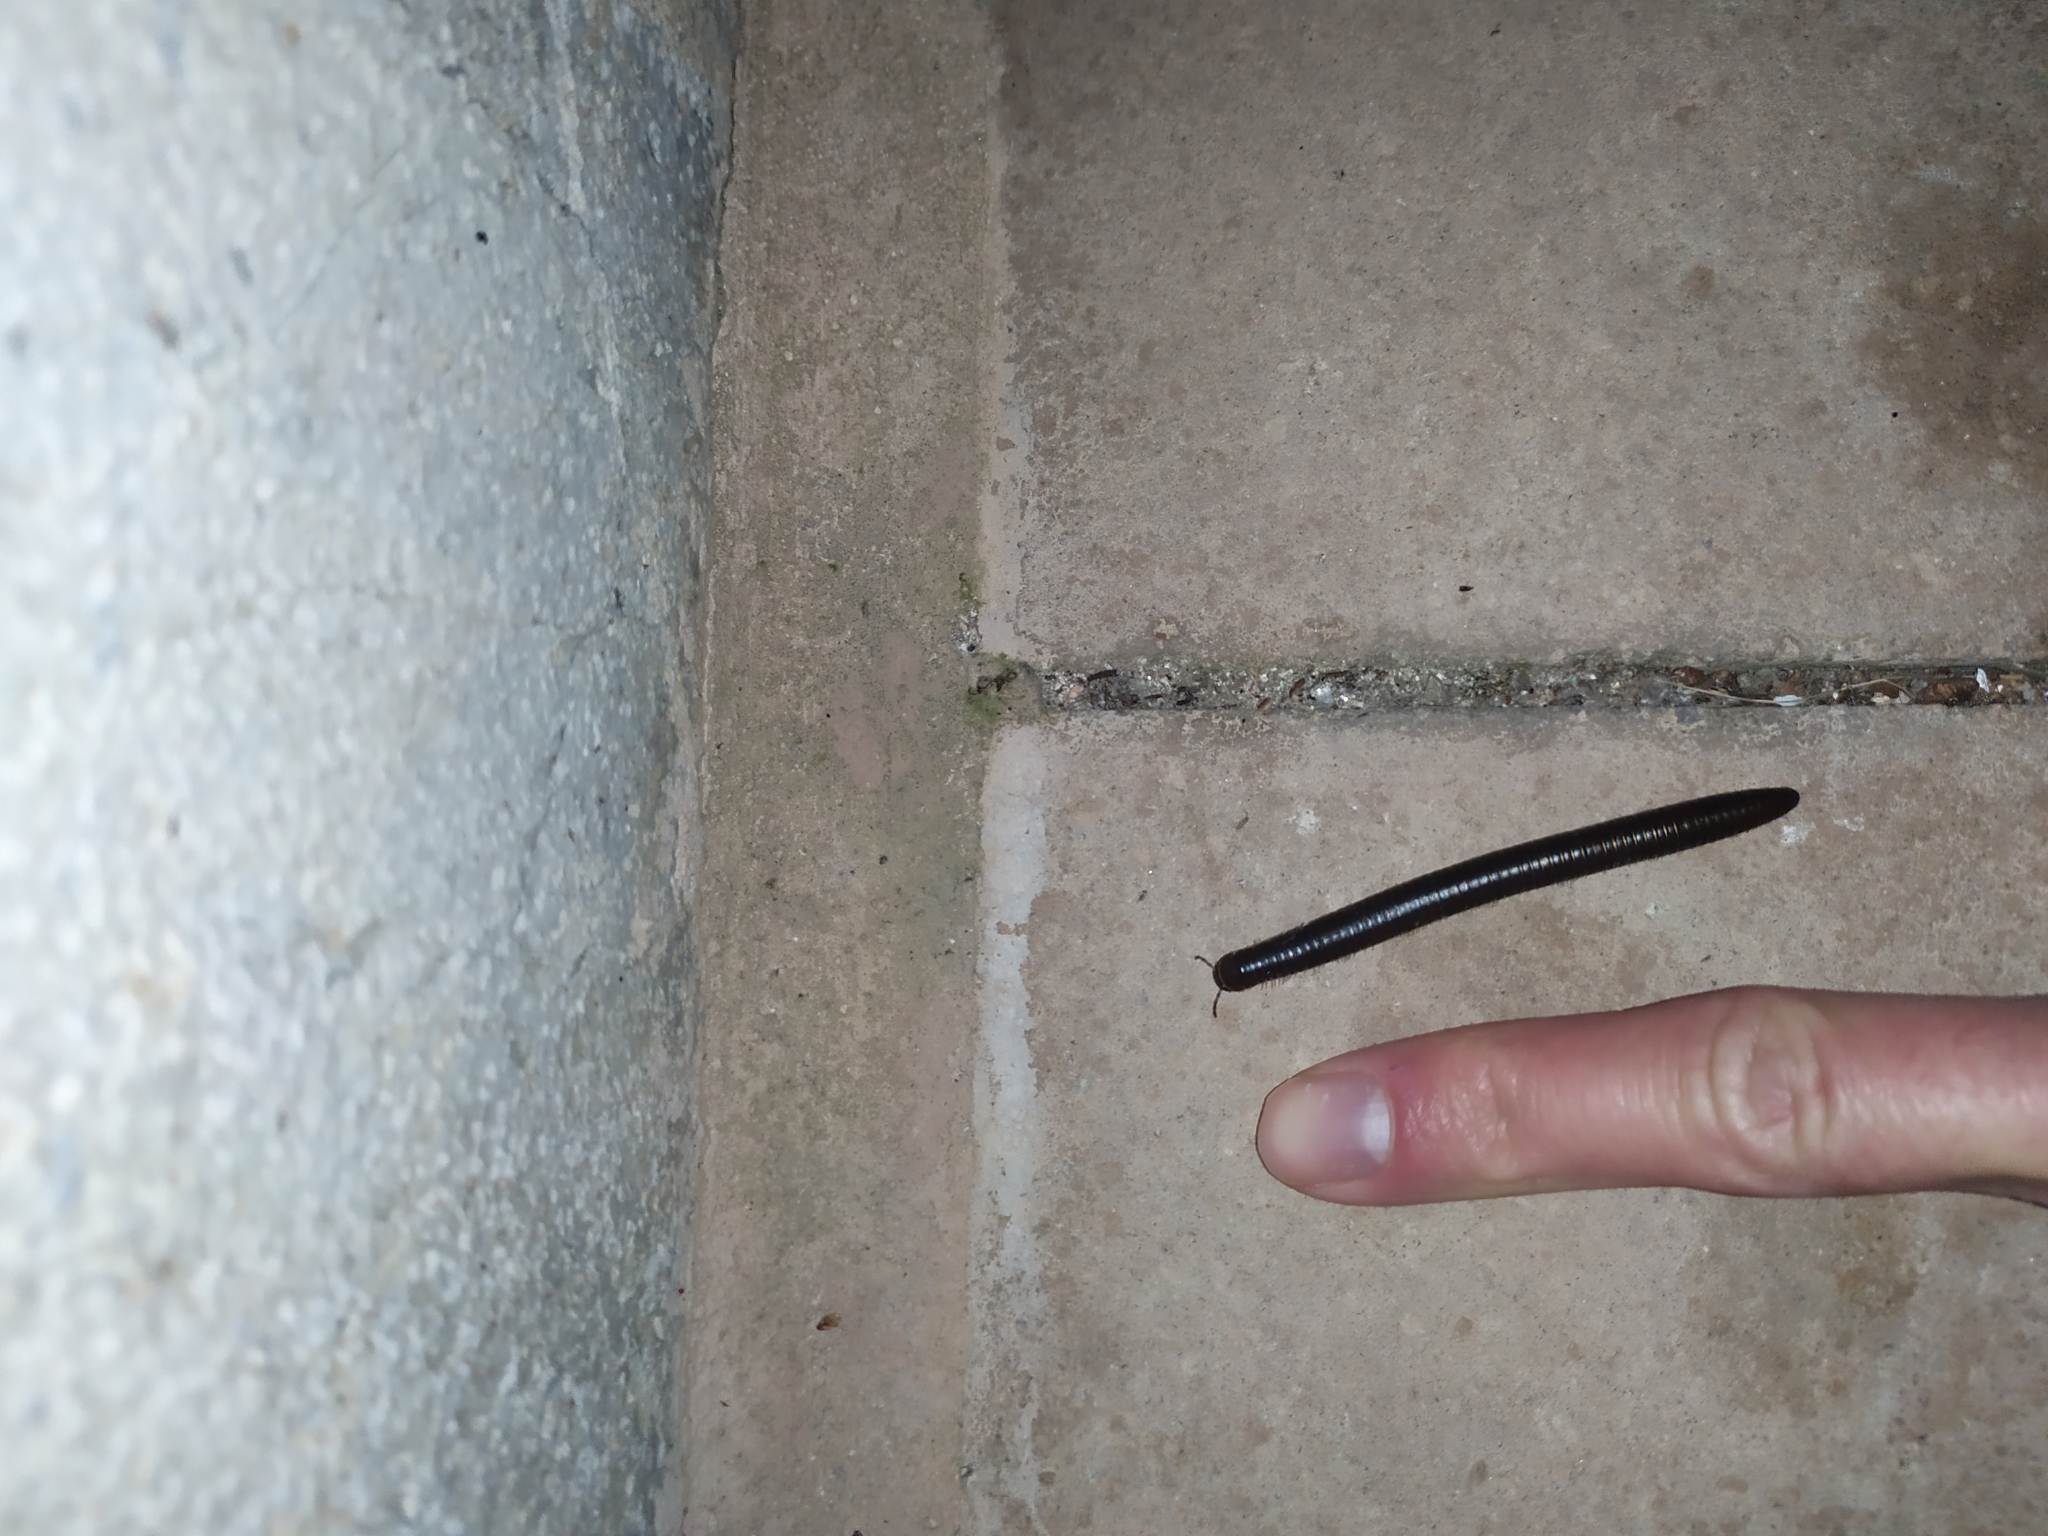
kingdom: Animalia
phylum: Arthropoda
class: Diplopoda
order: Julida
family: Julidae
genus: Pachyiulus
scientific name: Pachyiulus flavipes
